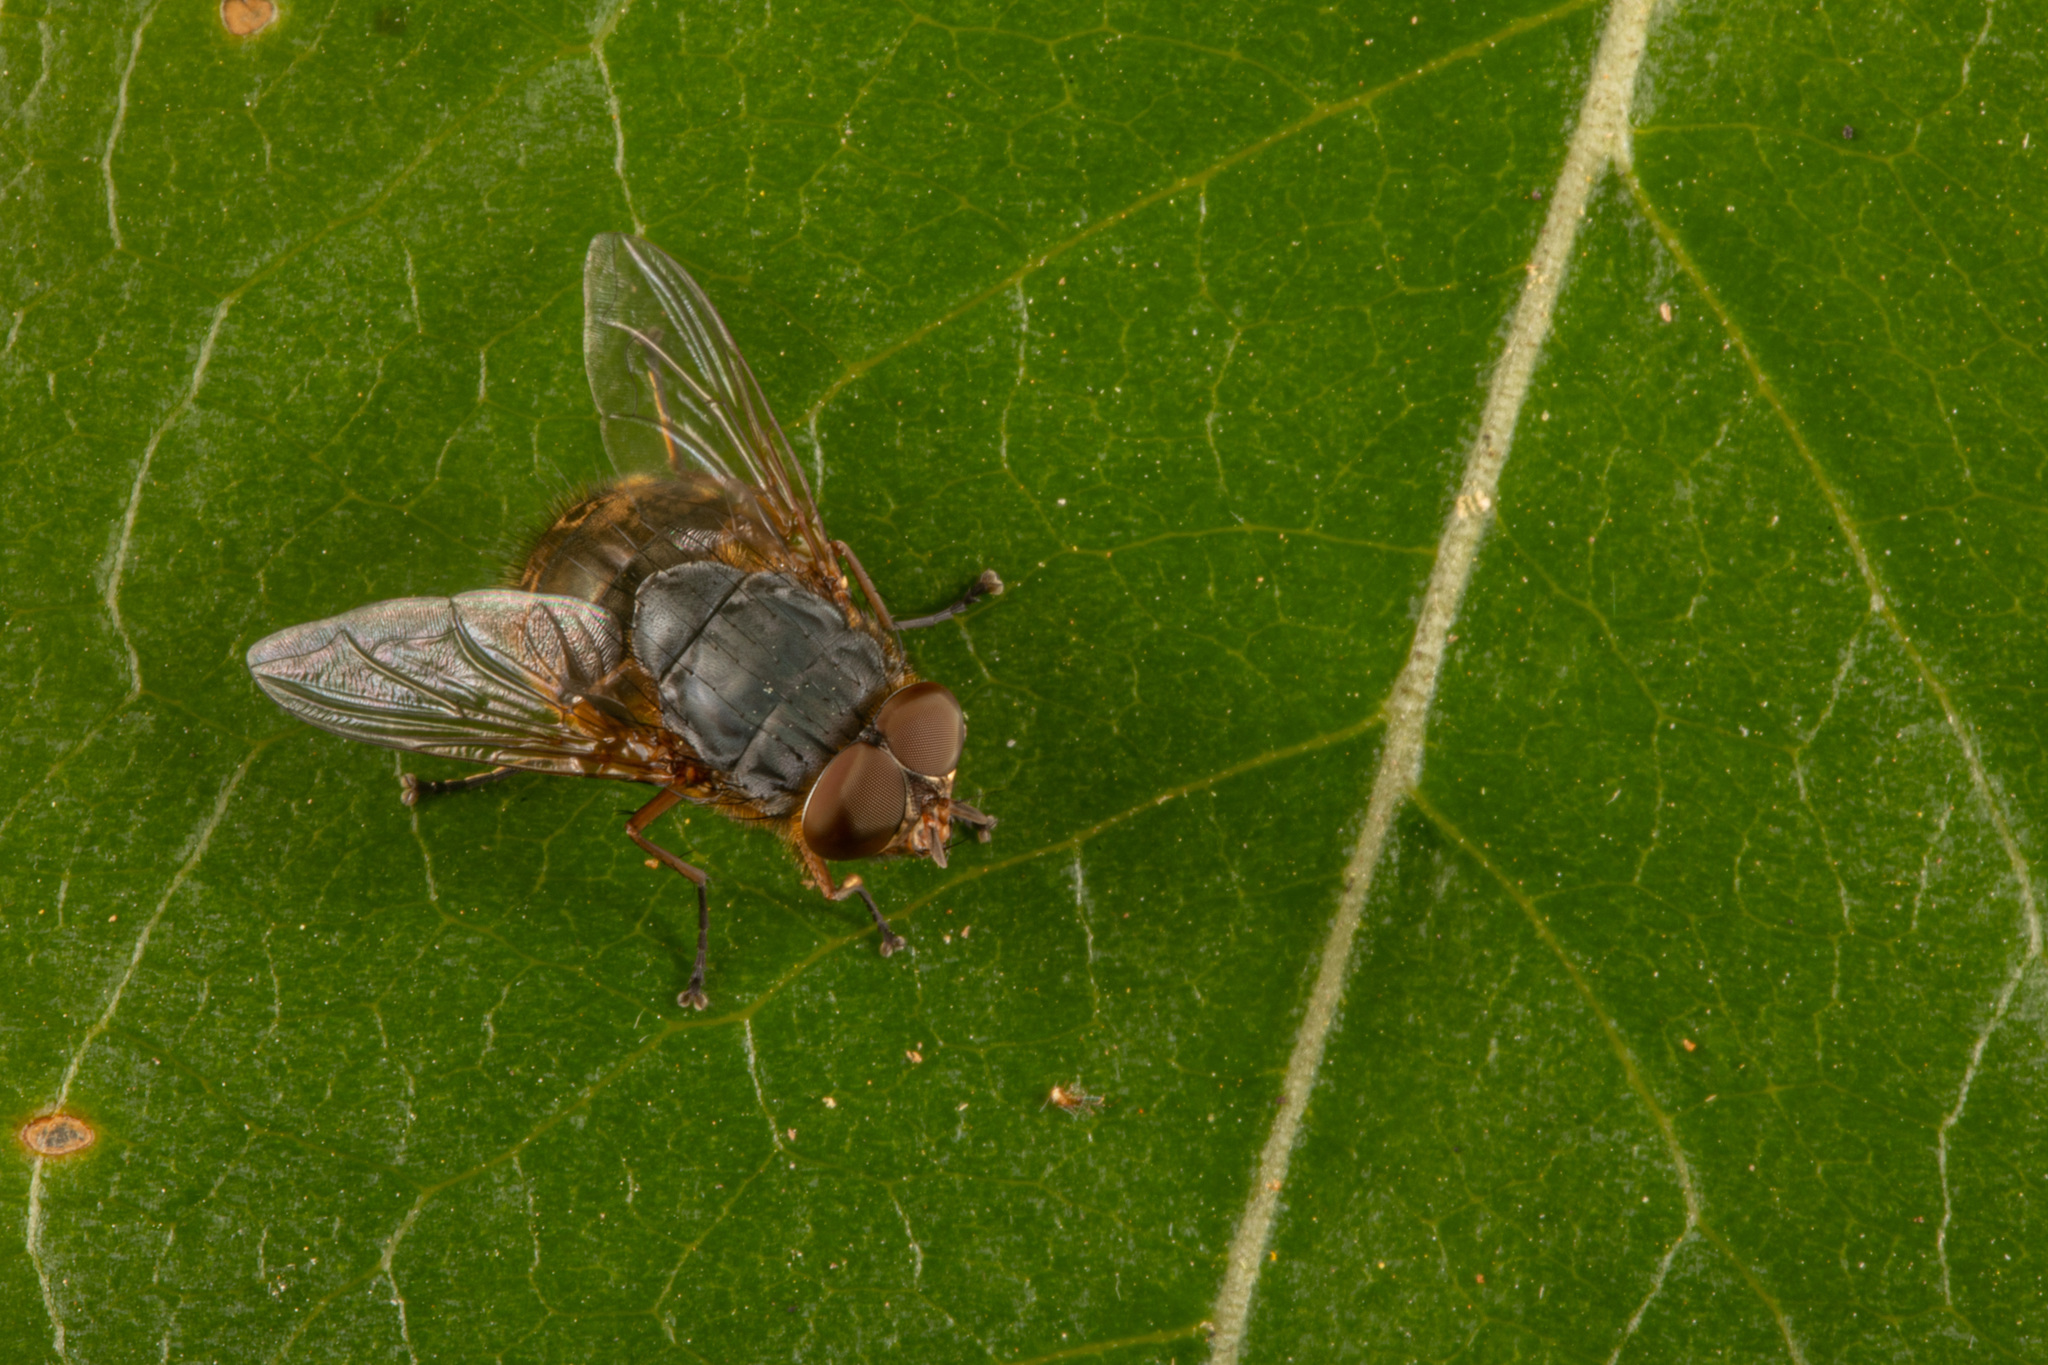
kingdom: Animalia
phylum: Arthropoda
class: Insecta
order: Diptera
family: Calliphoridae
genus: Calliphora
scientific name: Calliphora stygia
